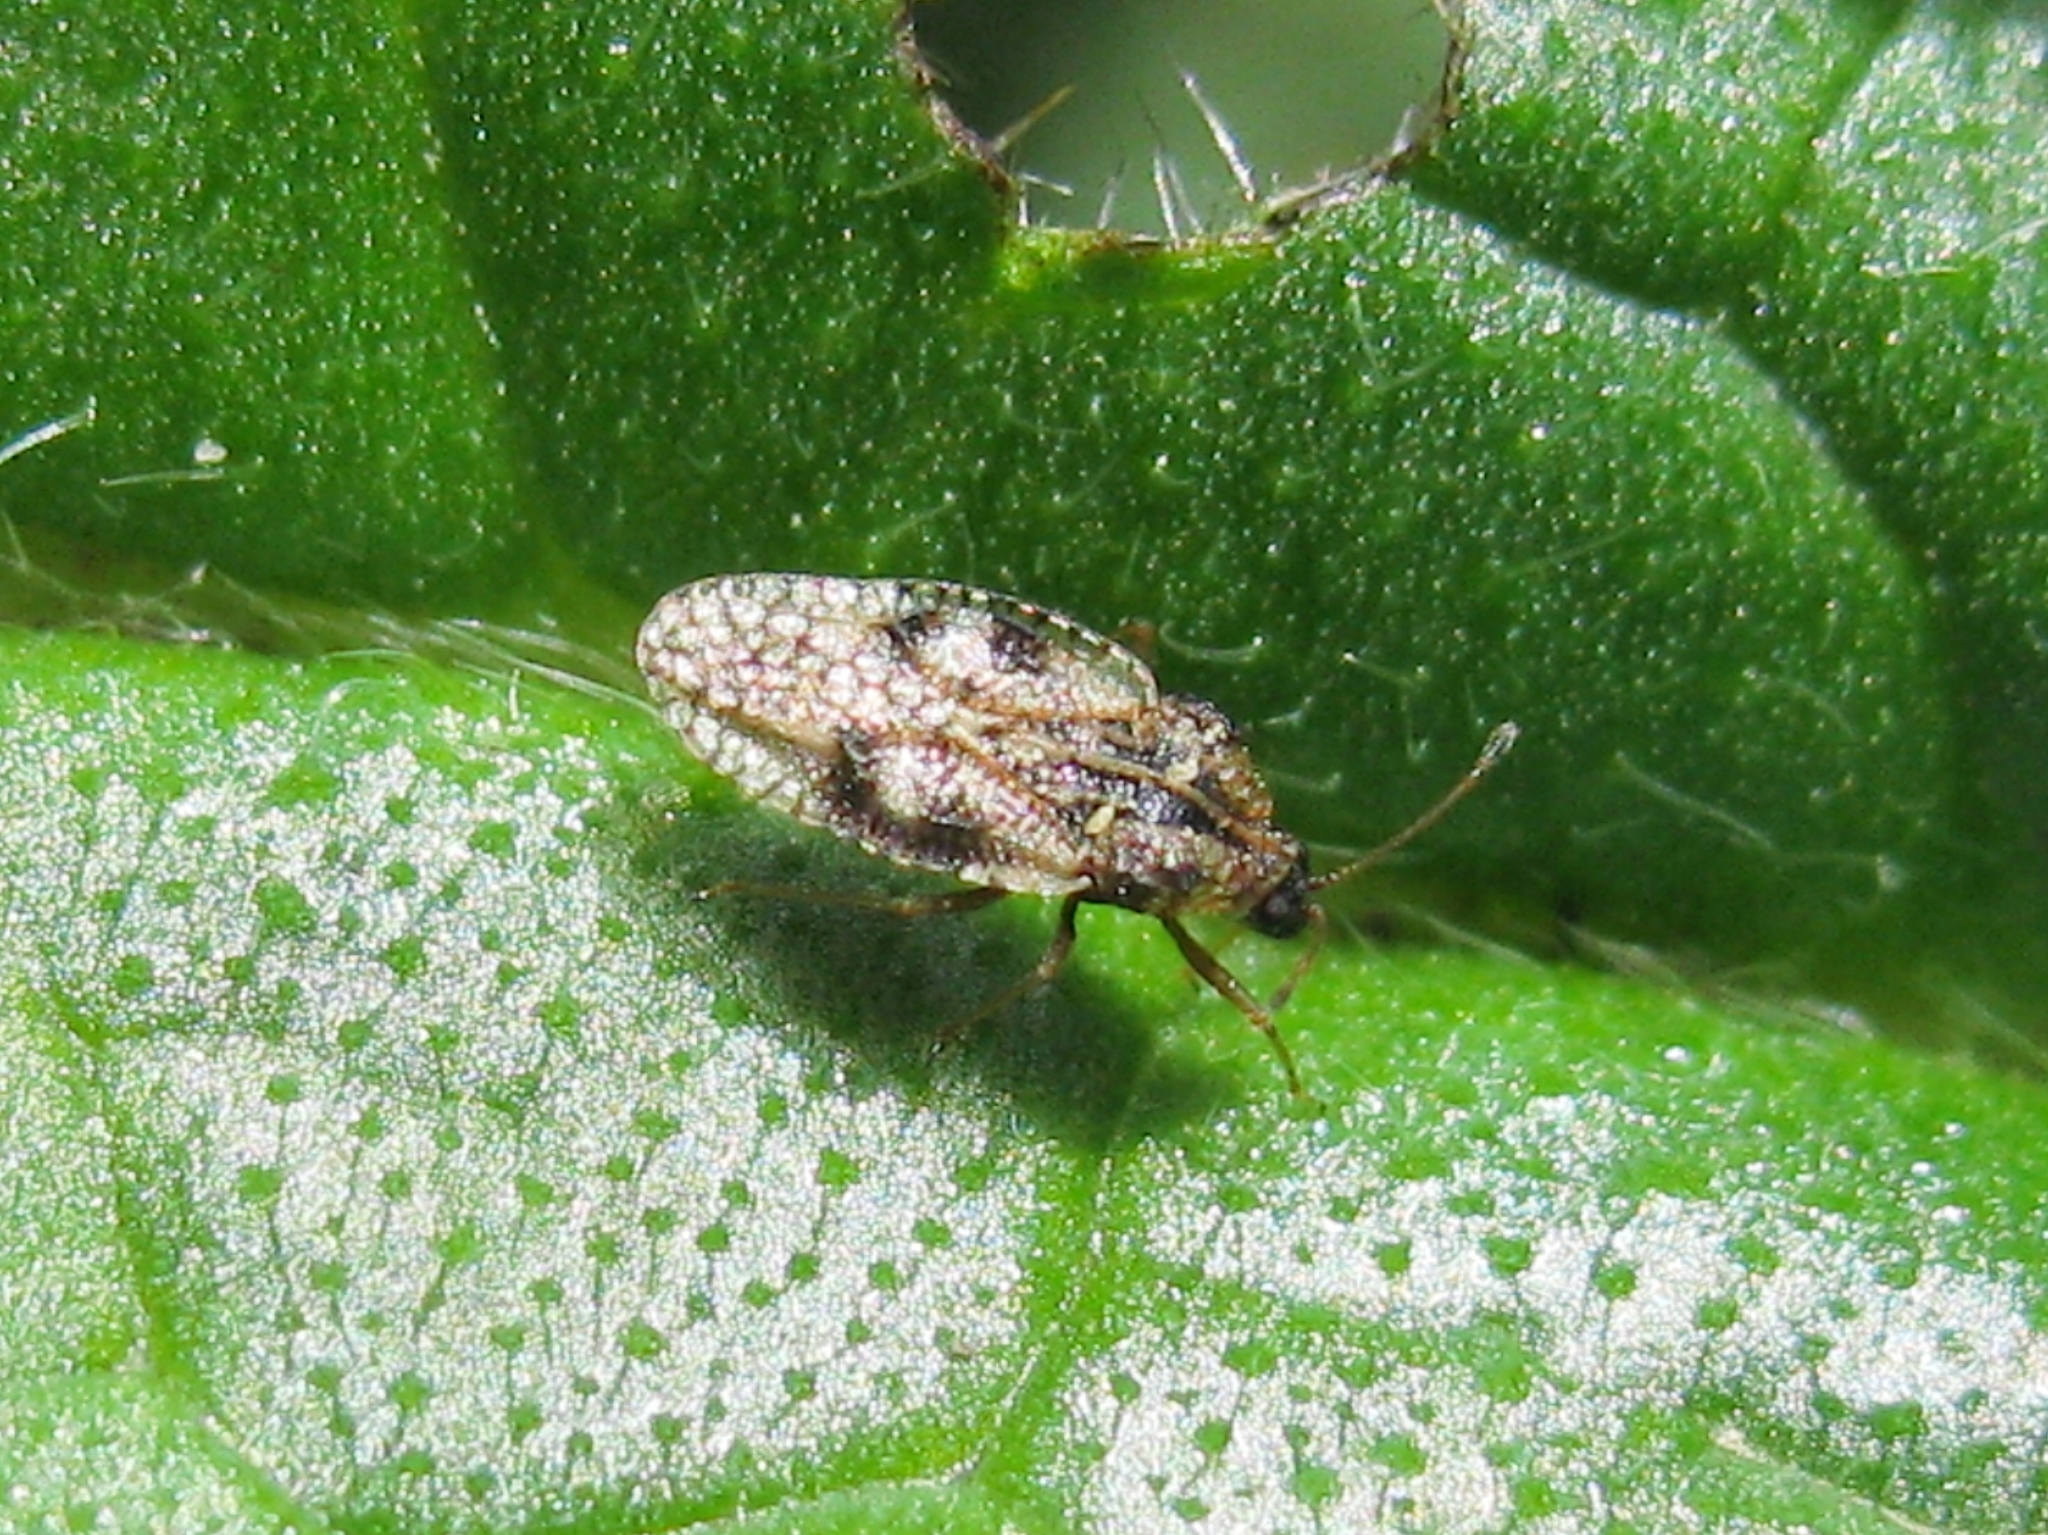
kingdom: Animalia
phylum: Arthropoda
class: Insecta
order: Hemiptera
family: Tingidae
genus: Dictyla
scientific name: Dictyla nassata
